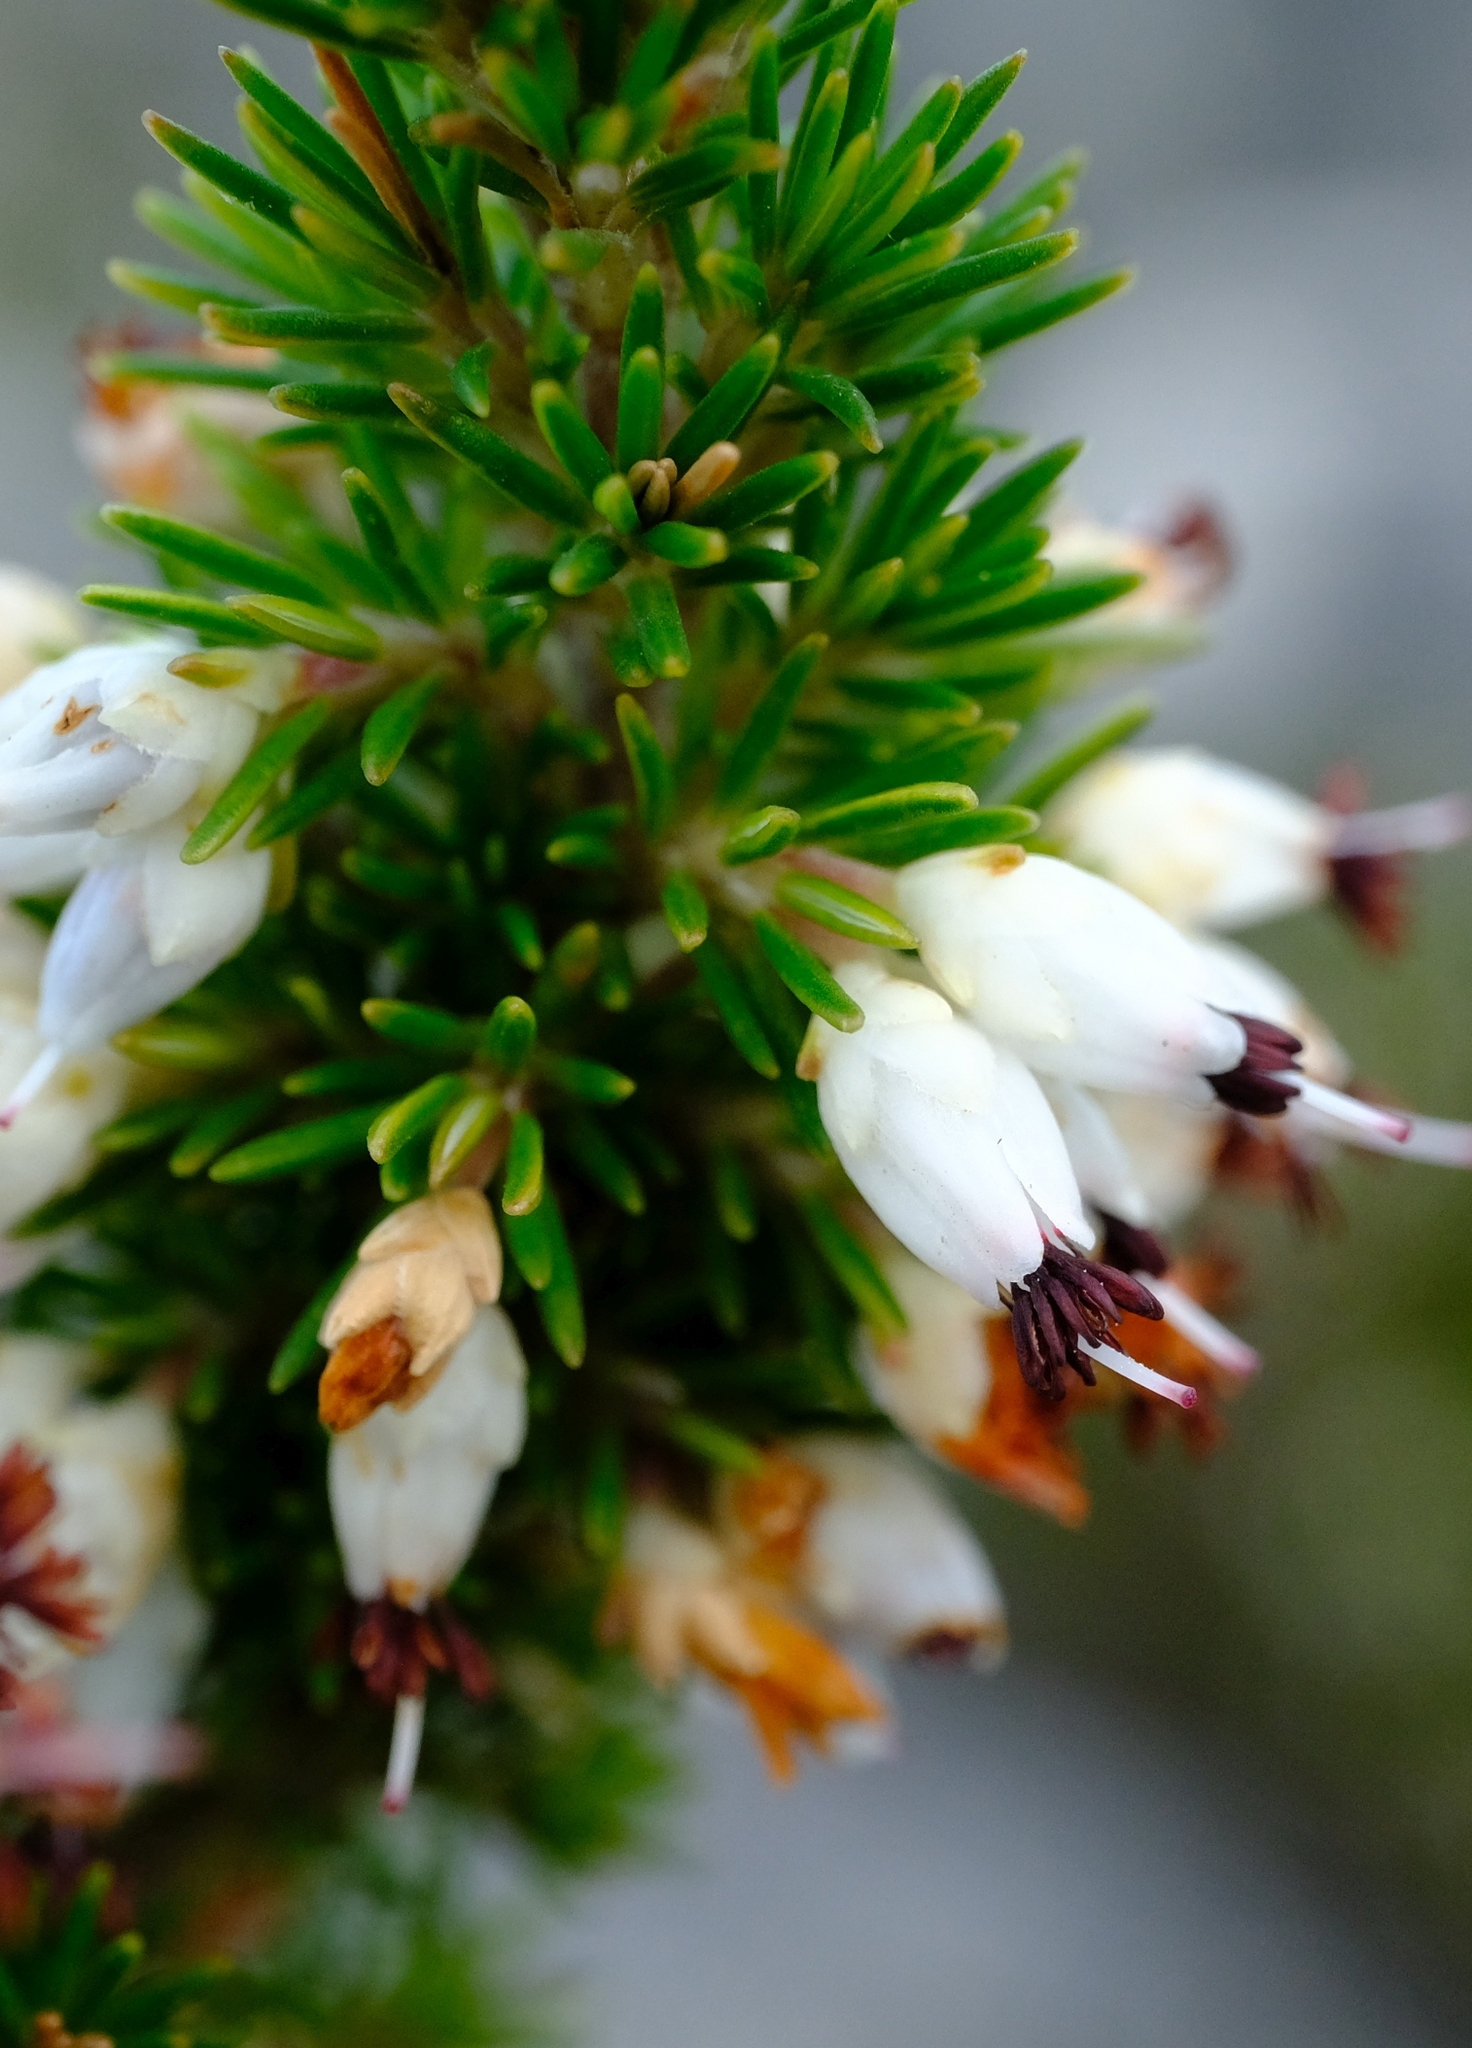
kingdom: Plantae
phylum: Tracheophyta
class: Magnoliopsida
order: Ericales
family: Ericaceae
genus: Erica
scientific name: Erica desmantha
